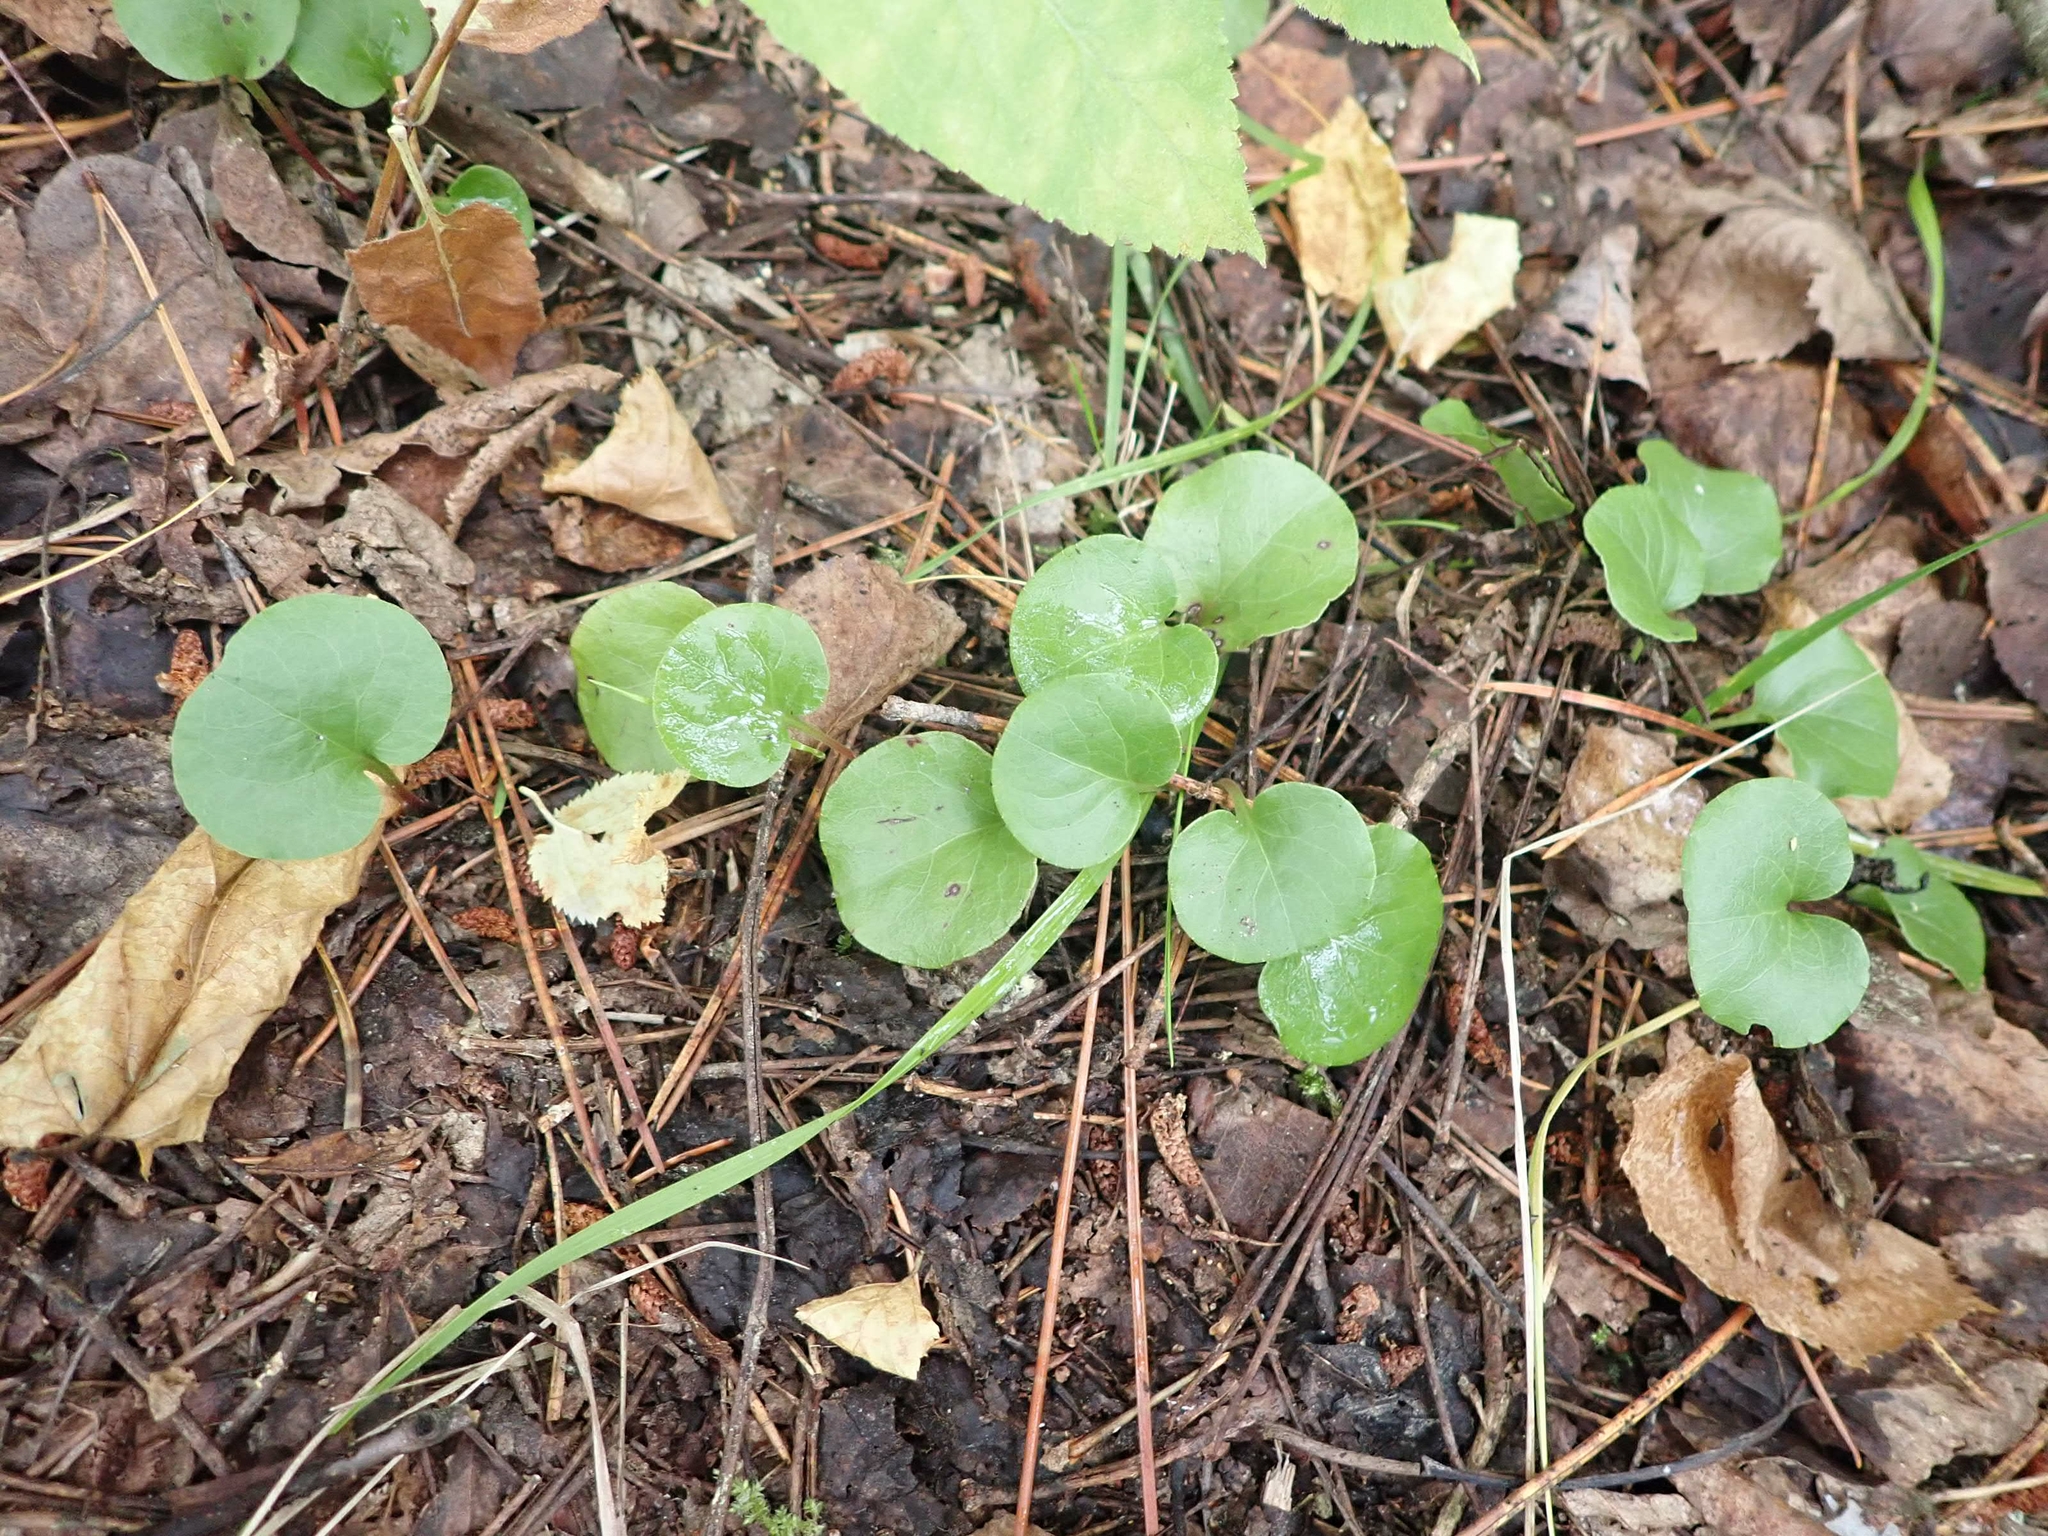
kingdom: Plantae
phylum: Tracheophyta
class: Magnoliopsida
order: Ericales
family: Ericaceae
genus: Pyrola
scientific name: Pyrola asarifolia
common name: Bog wintergreen
